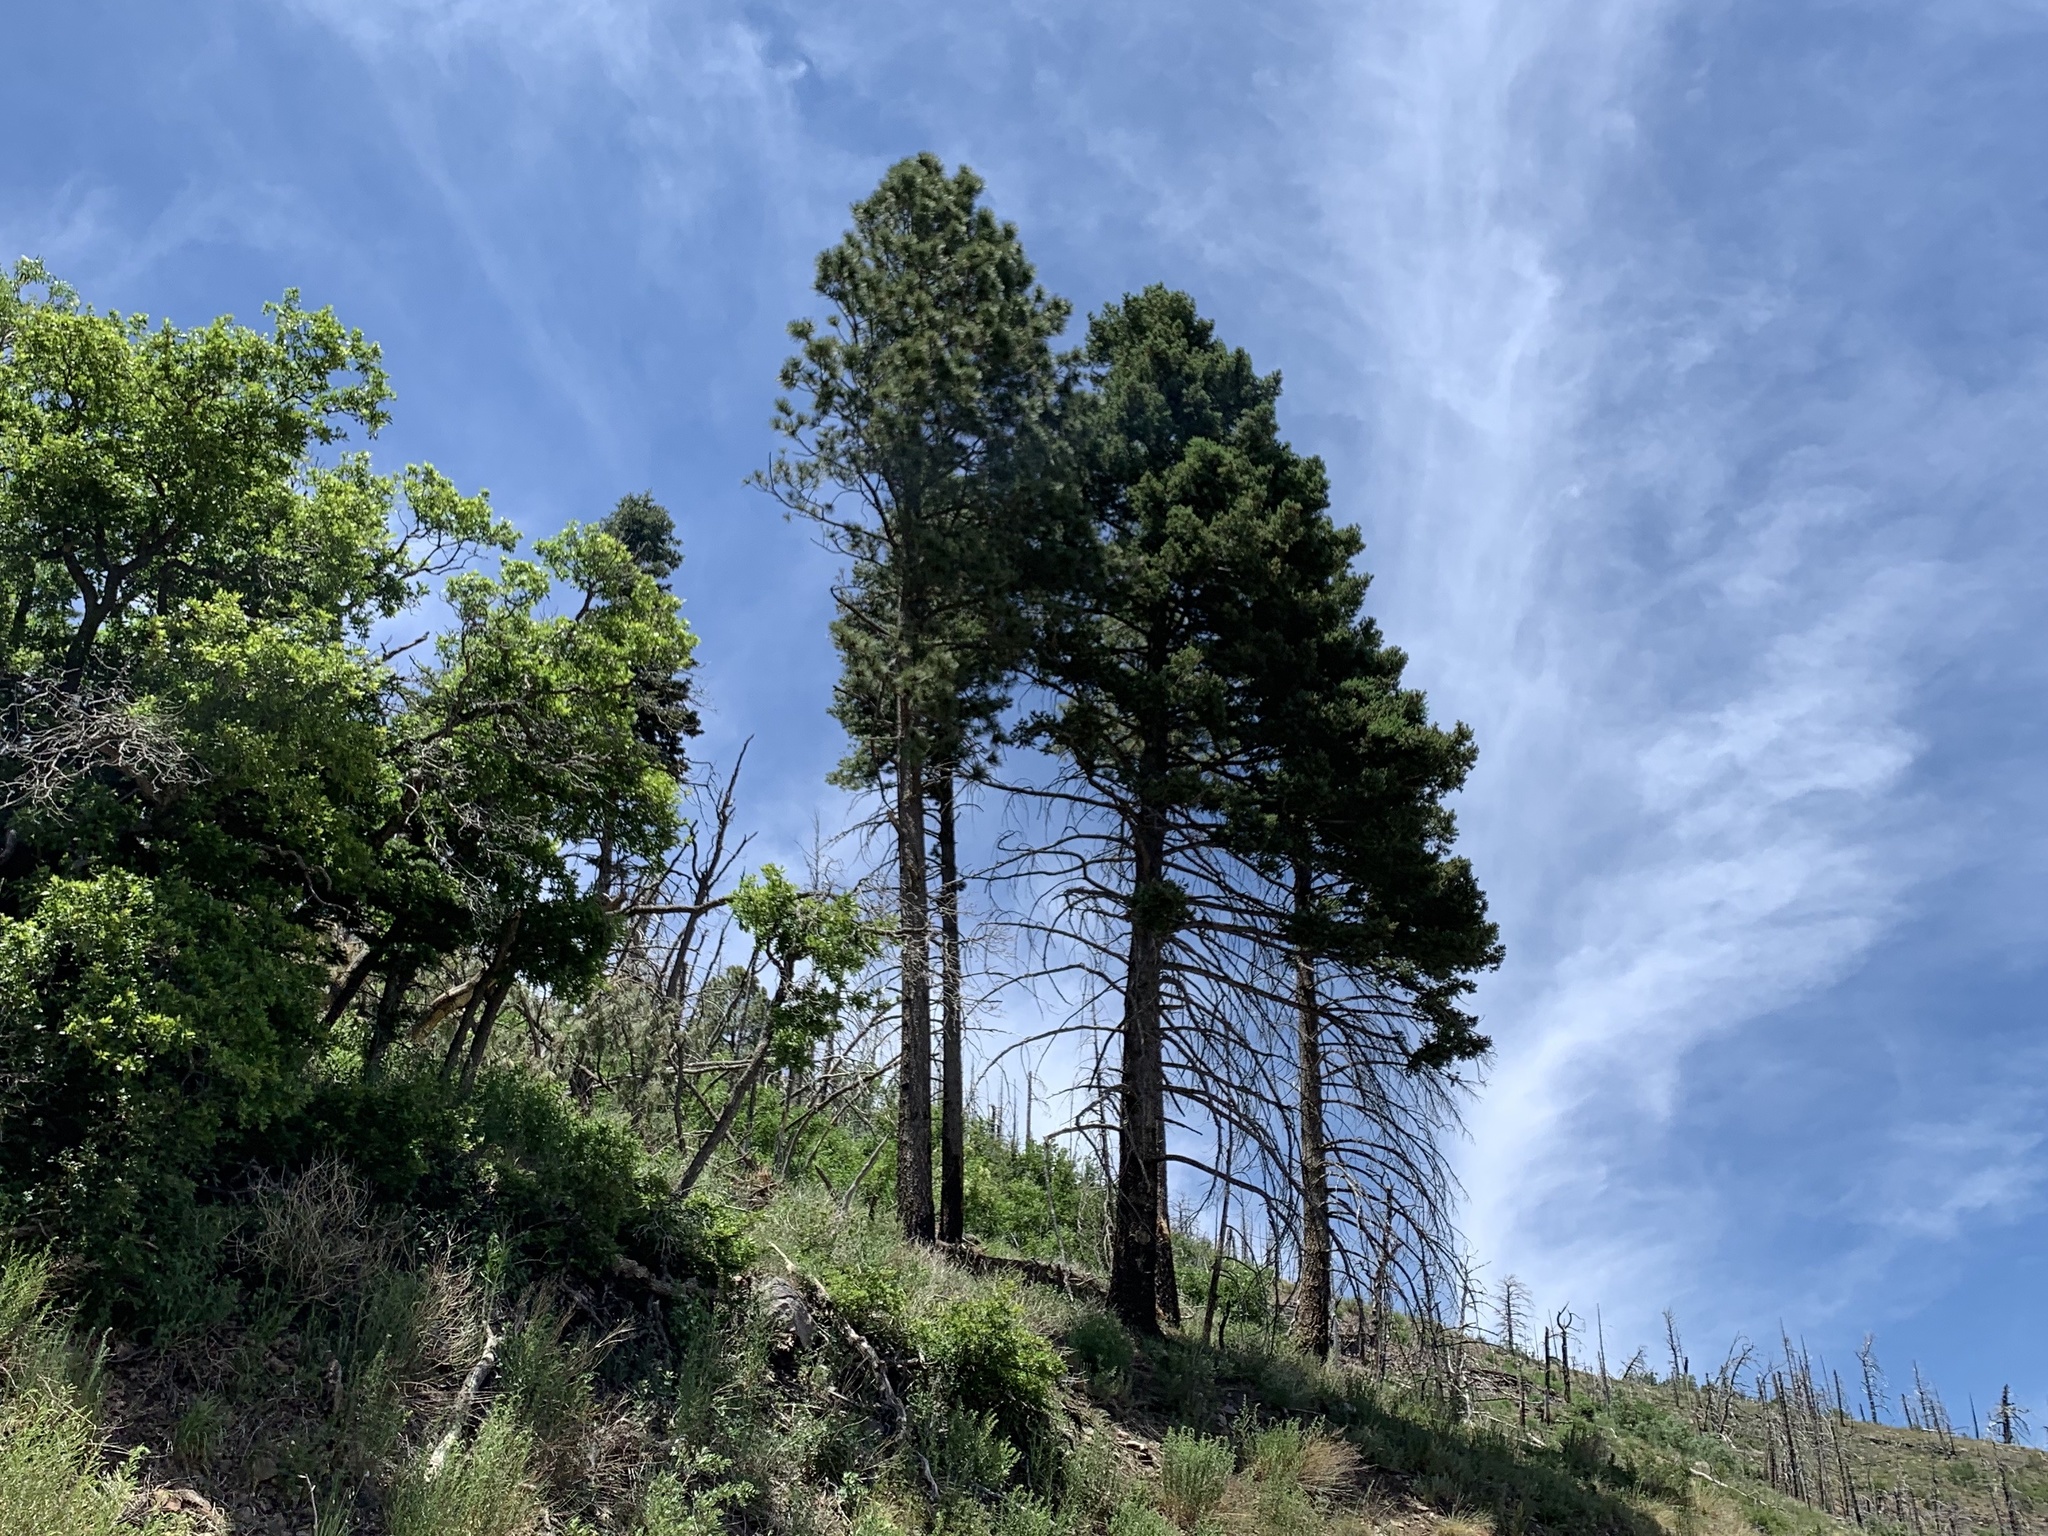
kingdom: Plantae
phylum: Tracheophyta
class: Pinopsida
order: Pinales
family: Pinaceae
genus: Pinus
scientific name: Pinus ponderosa
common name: Western yellow-pine
